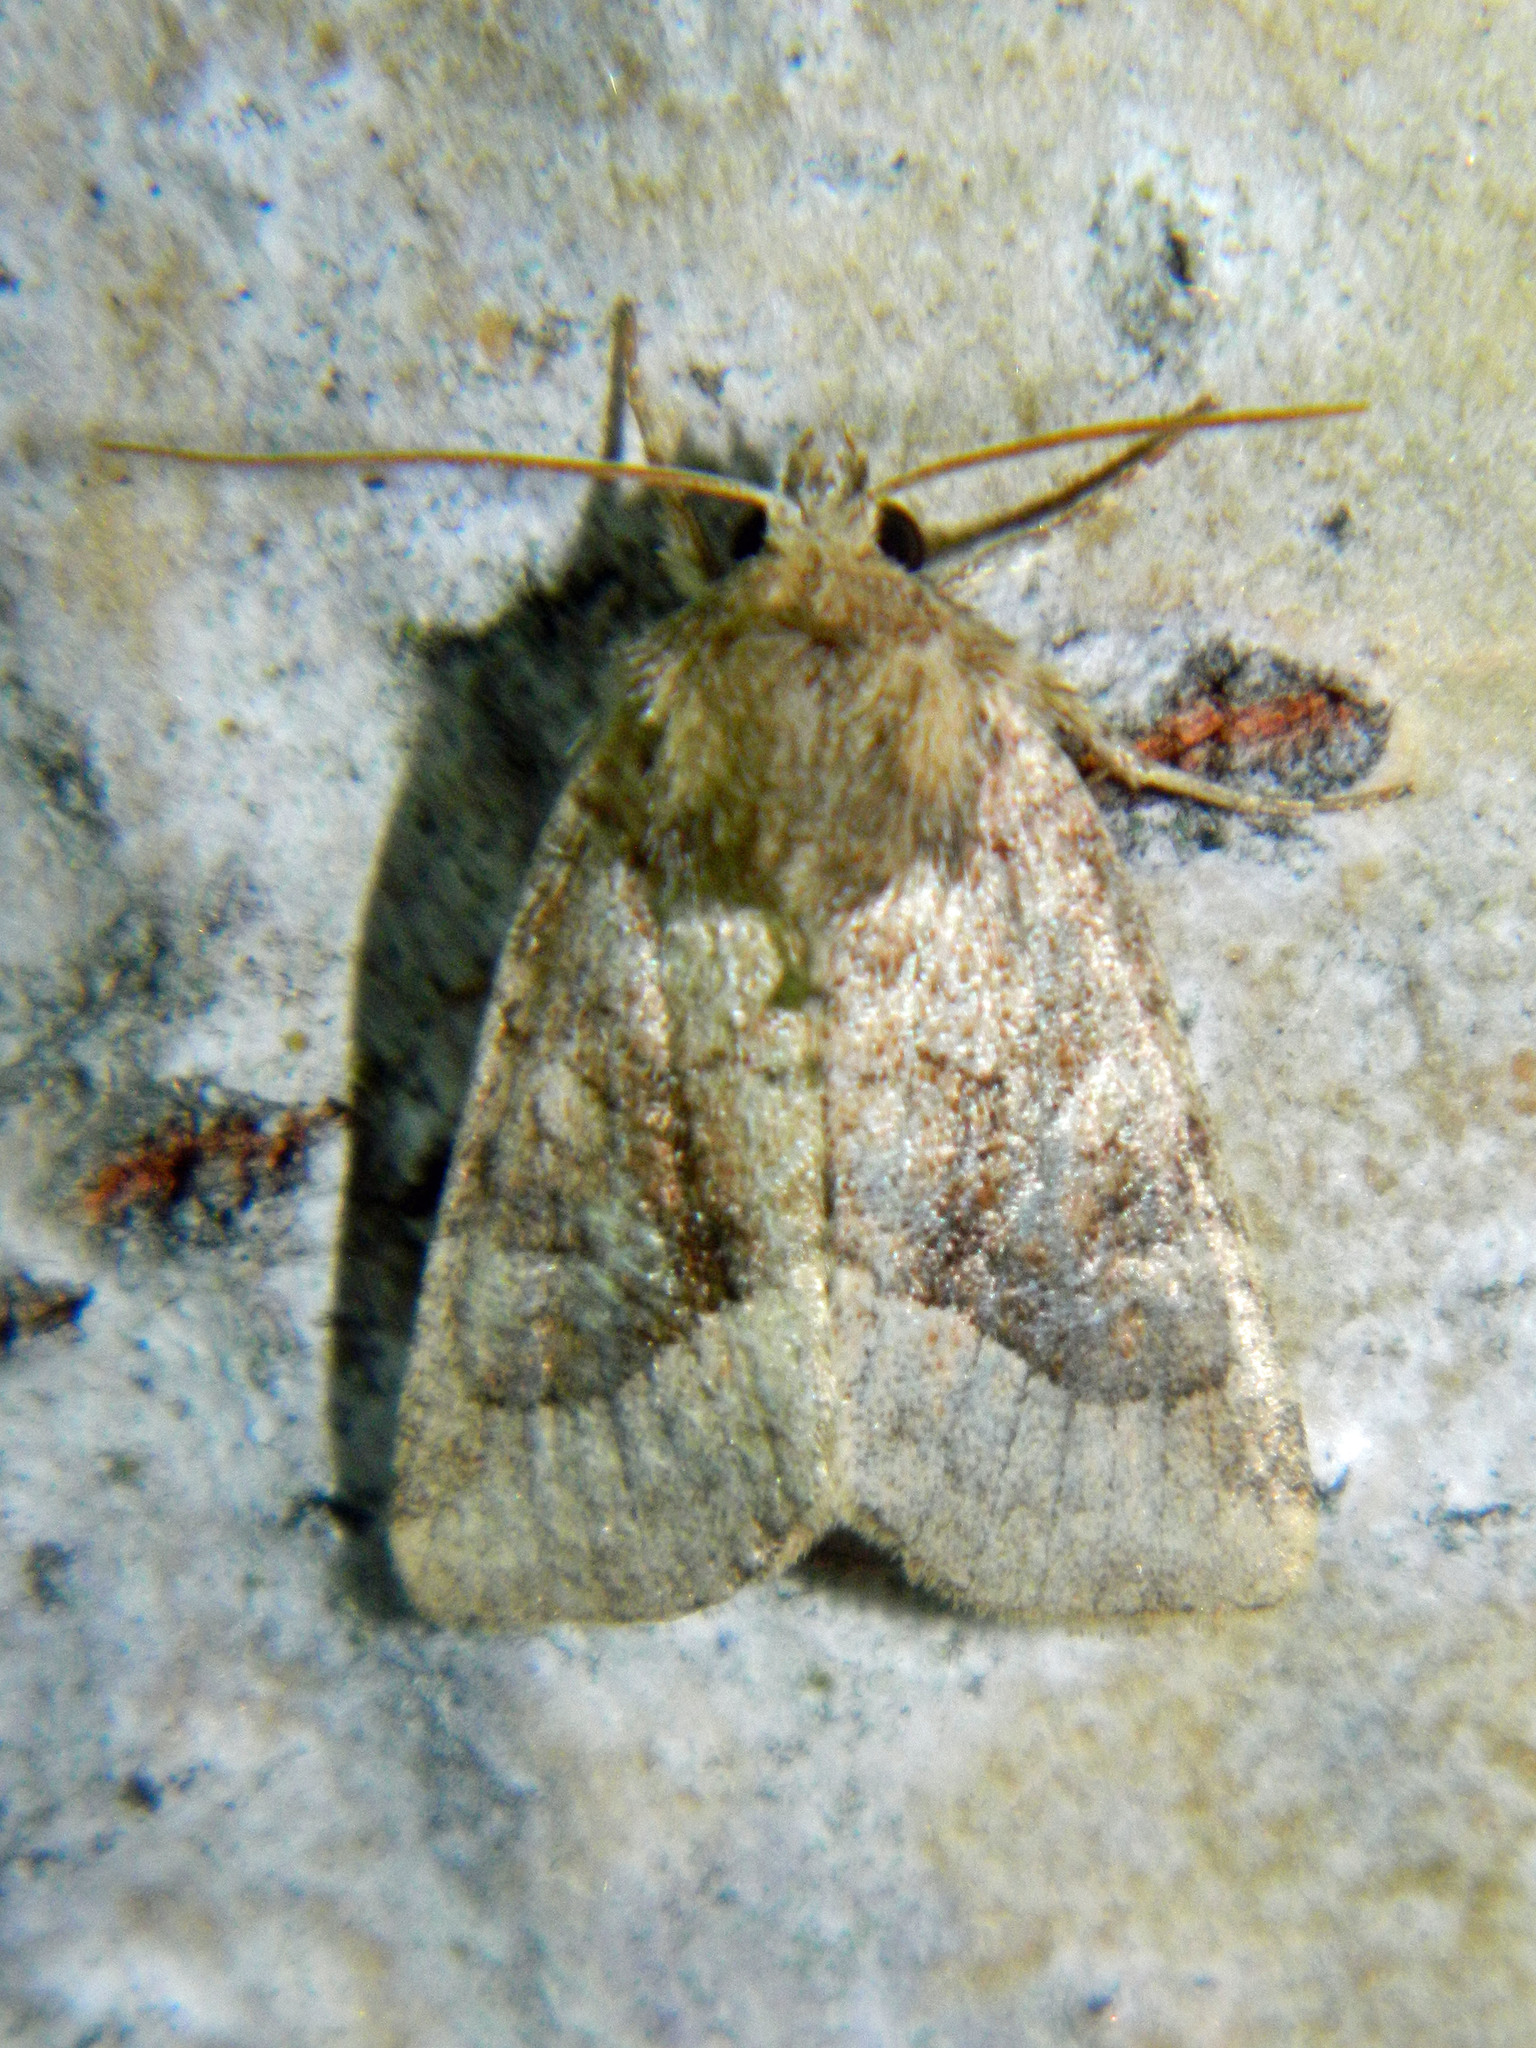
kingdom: Animalia
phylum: Arthropoda
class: Insecta
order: Lepidoptera
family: Noctuidae
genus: Lacinipolia
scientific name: Lacinipolia lorea
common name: Bridled arches moth
